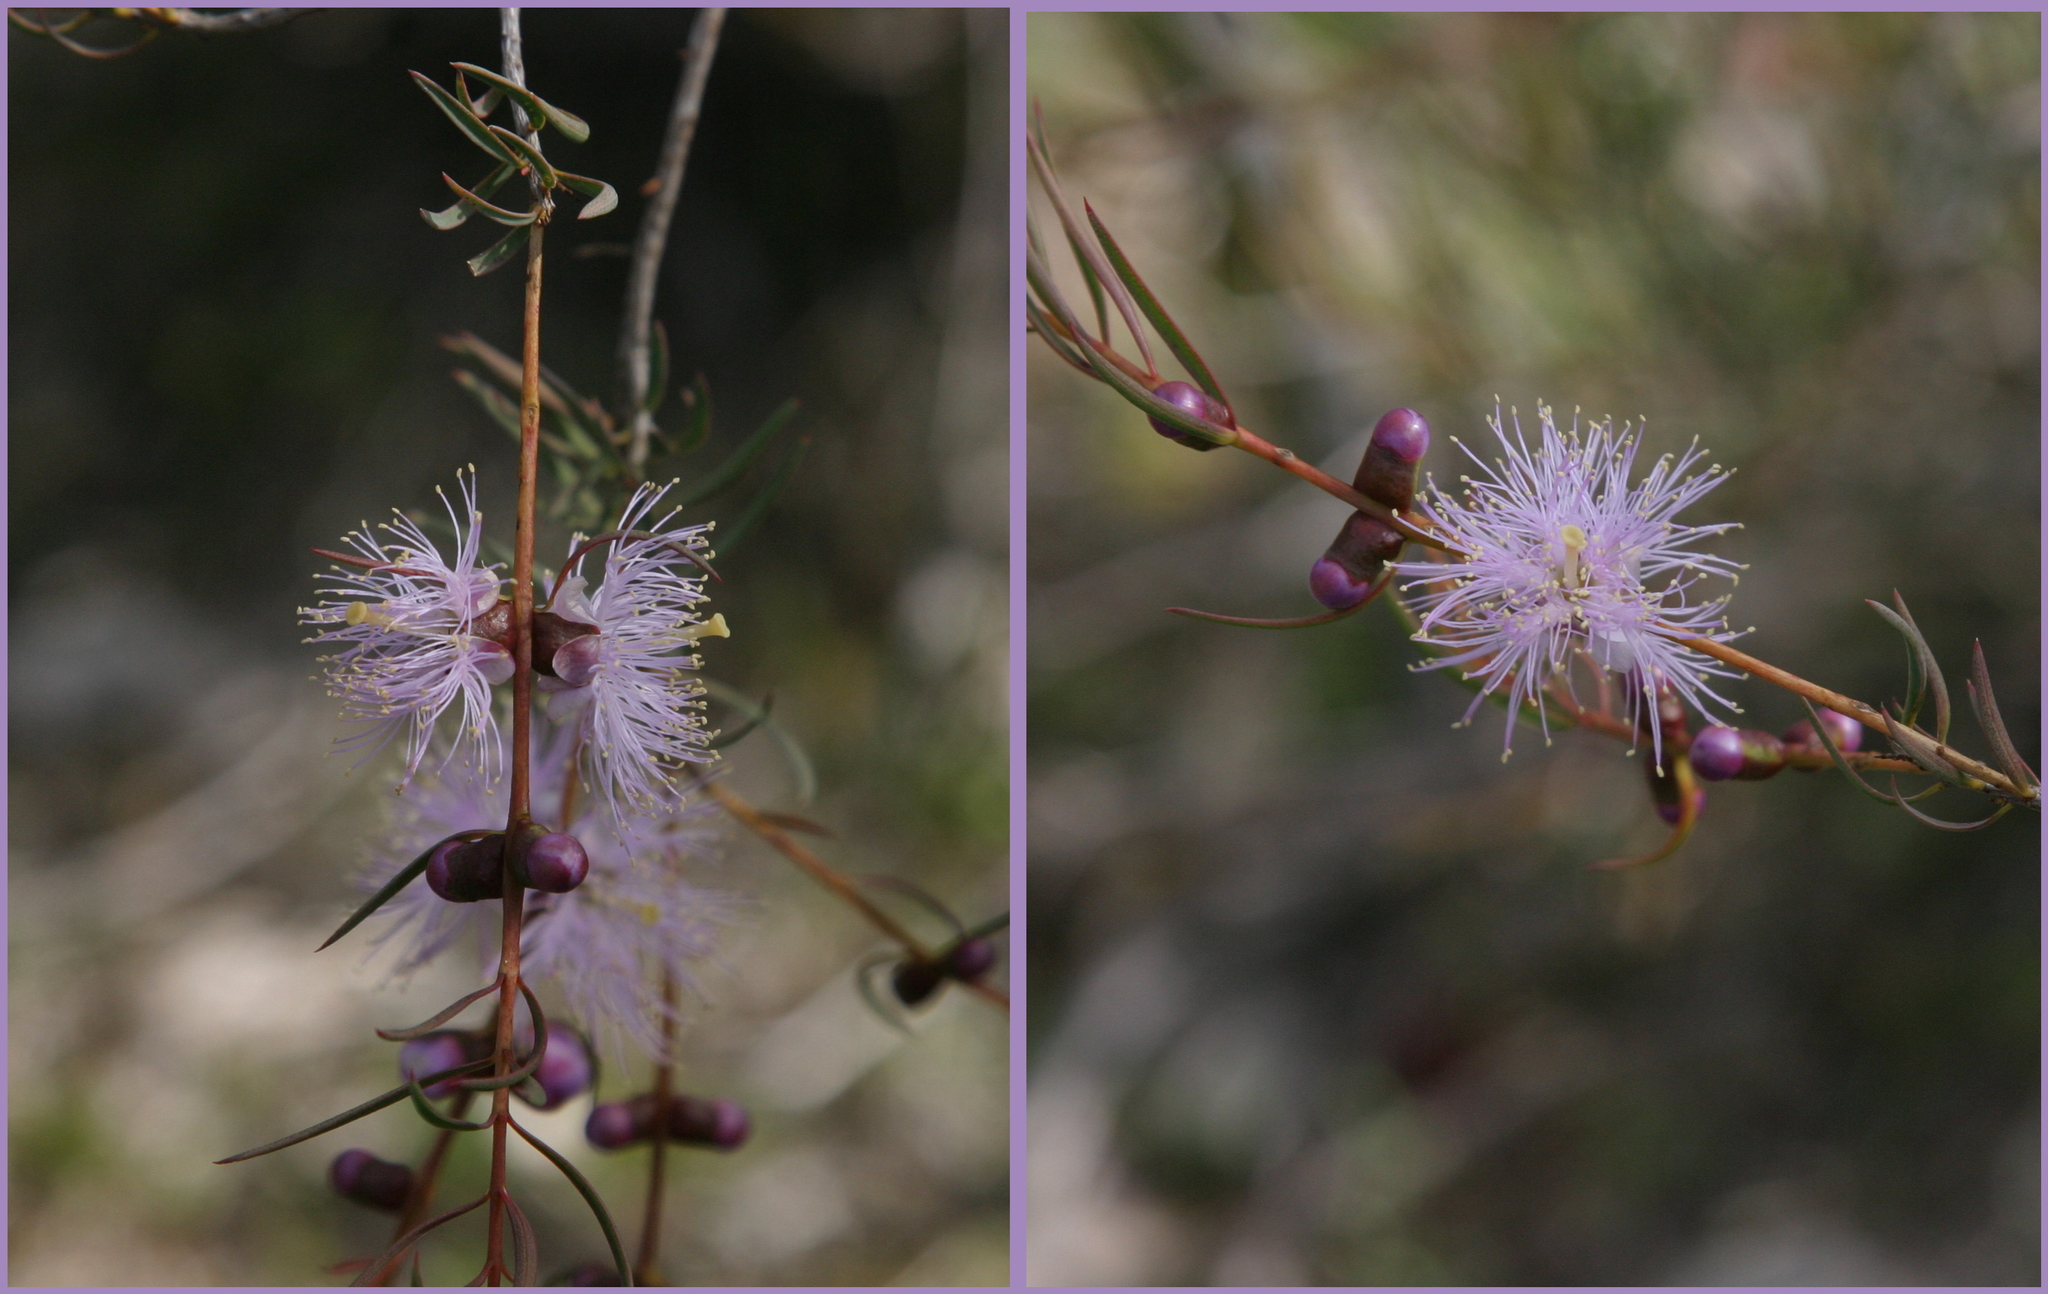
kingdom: Plantae
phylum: Tracheophyta
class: Magnoliopsida
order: Myrtales
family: Myrtaceae
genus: Melaleuca
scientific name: Melaleuca radula
